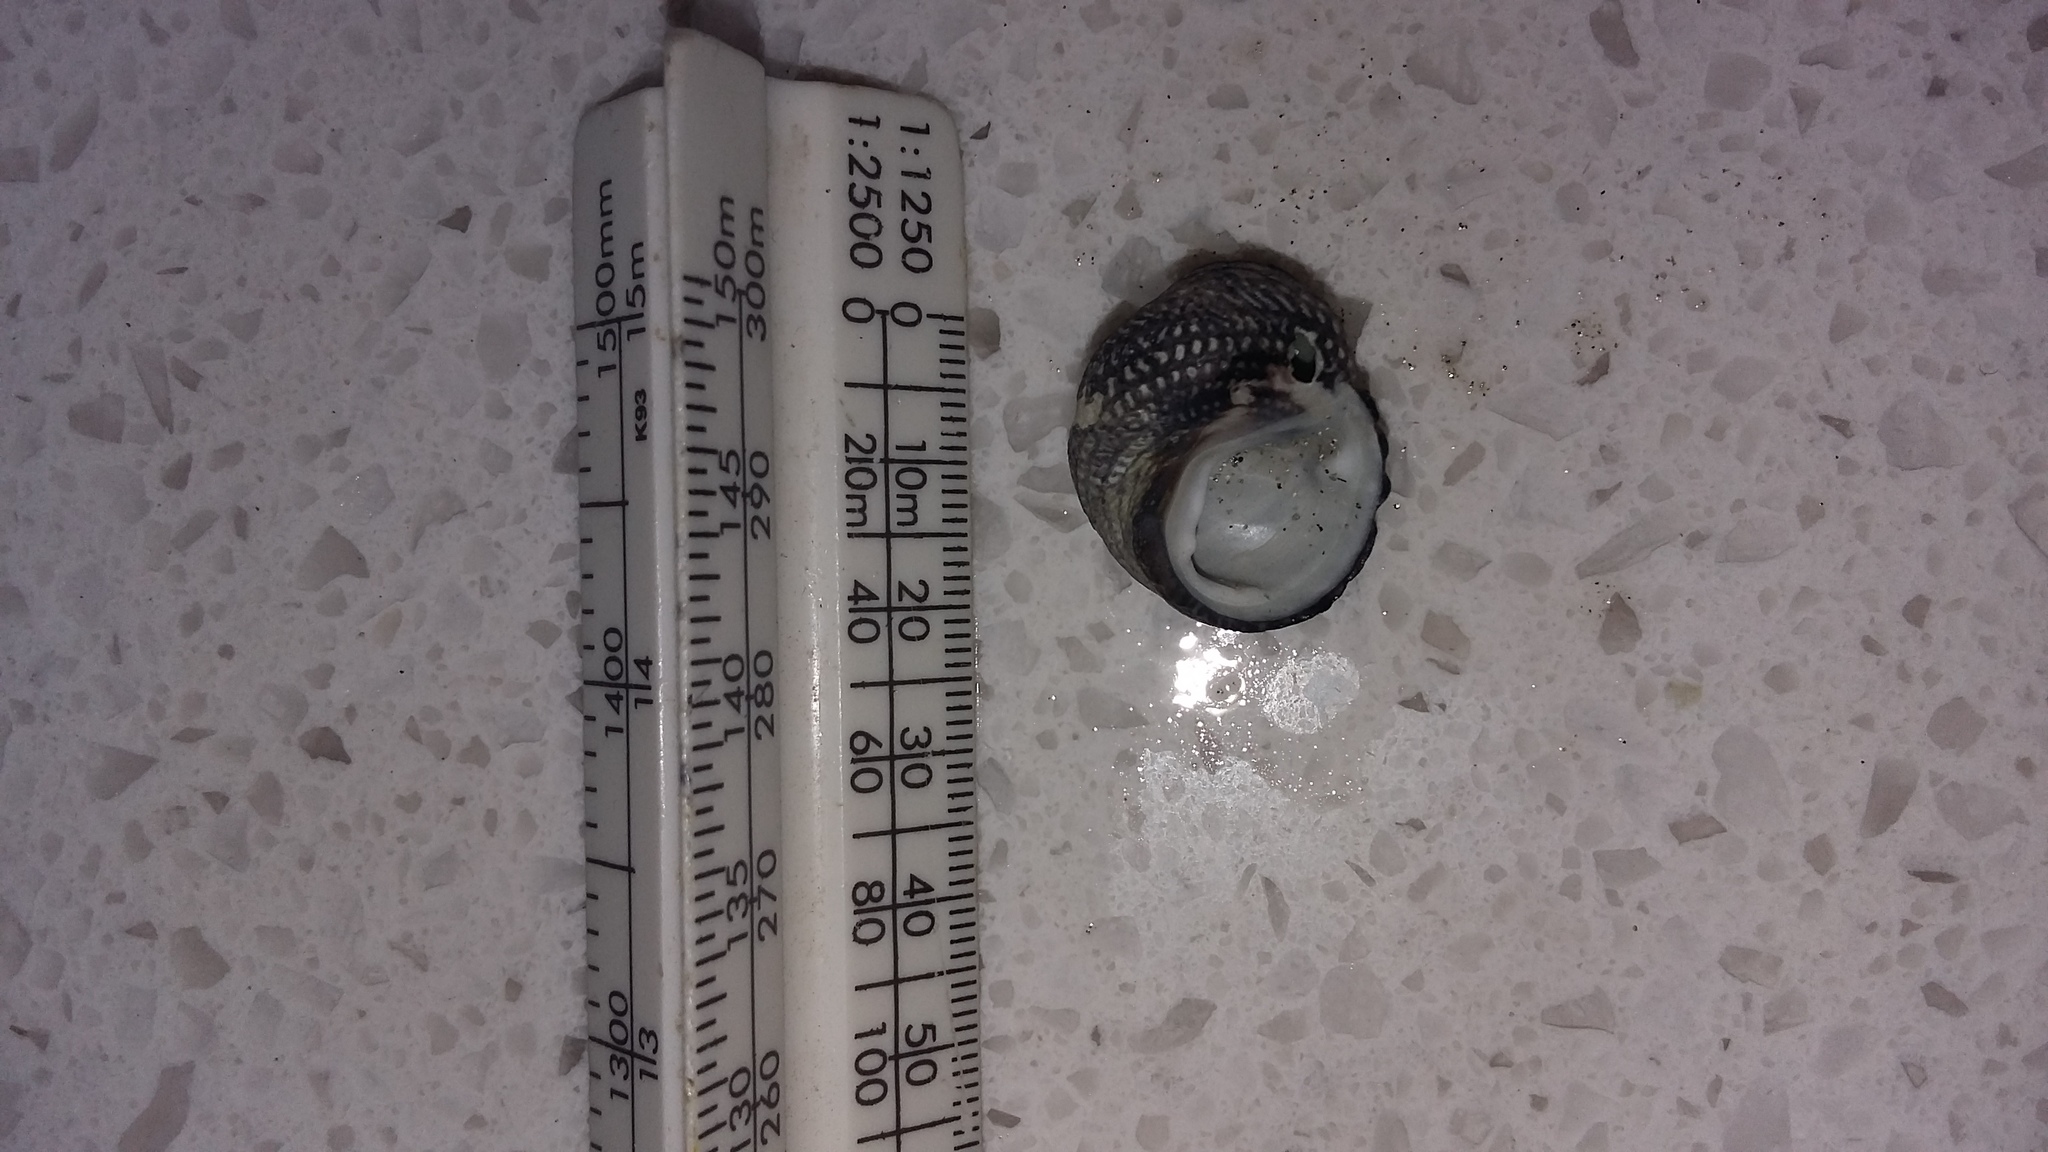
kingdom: Animalia
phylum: Mollusca
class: Gastropoda
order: Trochida
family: Trochidae
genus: Diloma
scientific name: Diloma aethiops
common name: Scorched monodont
